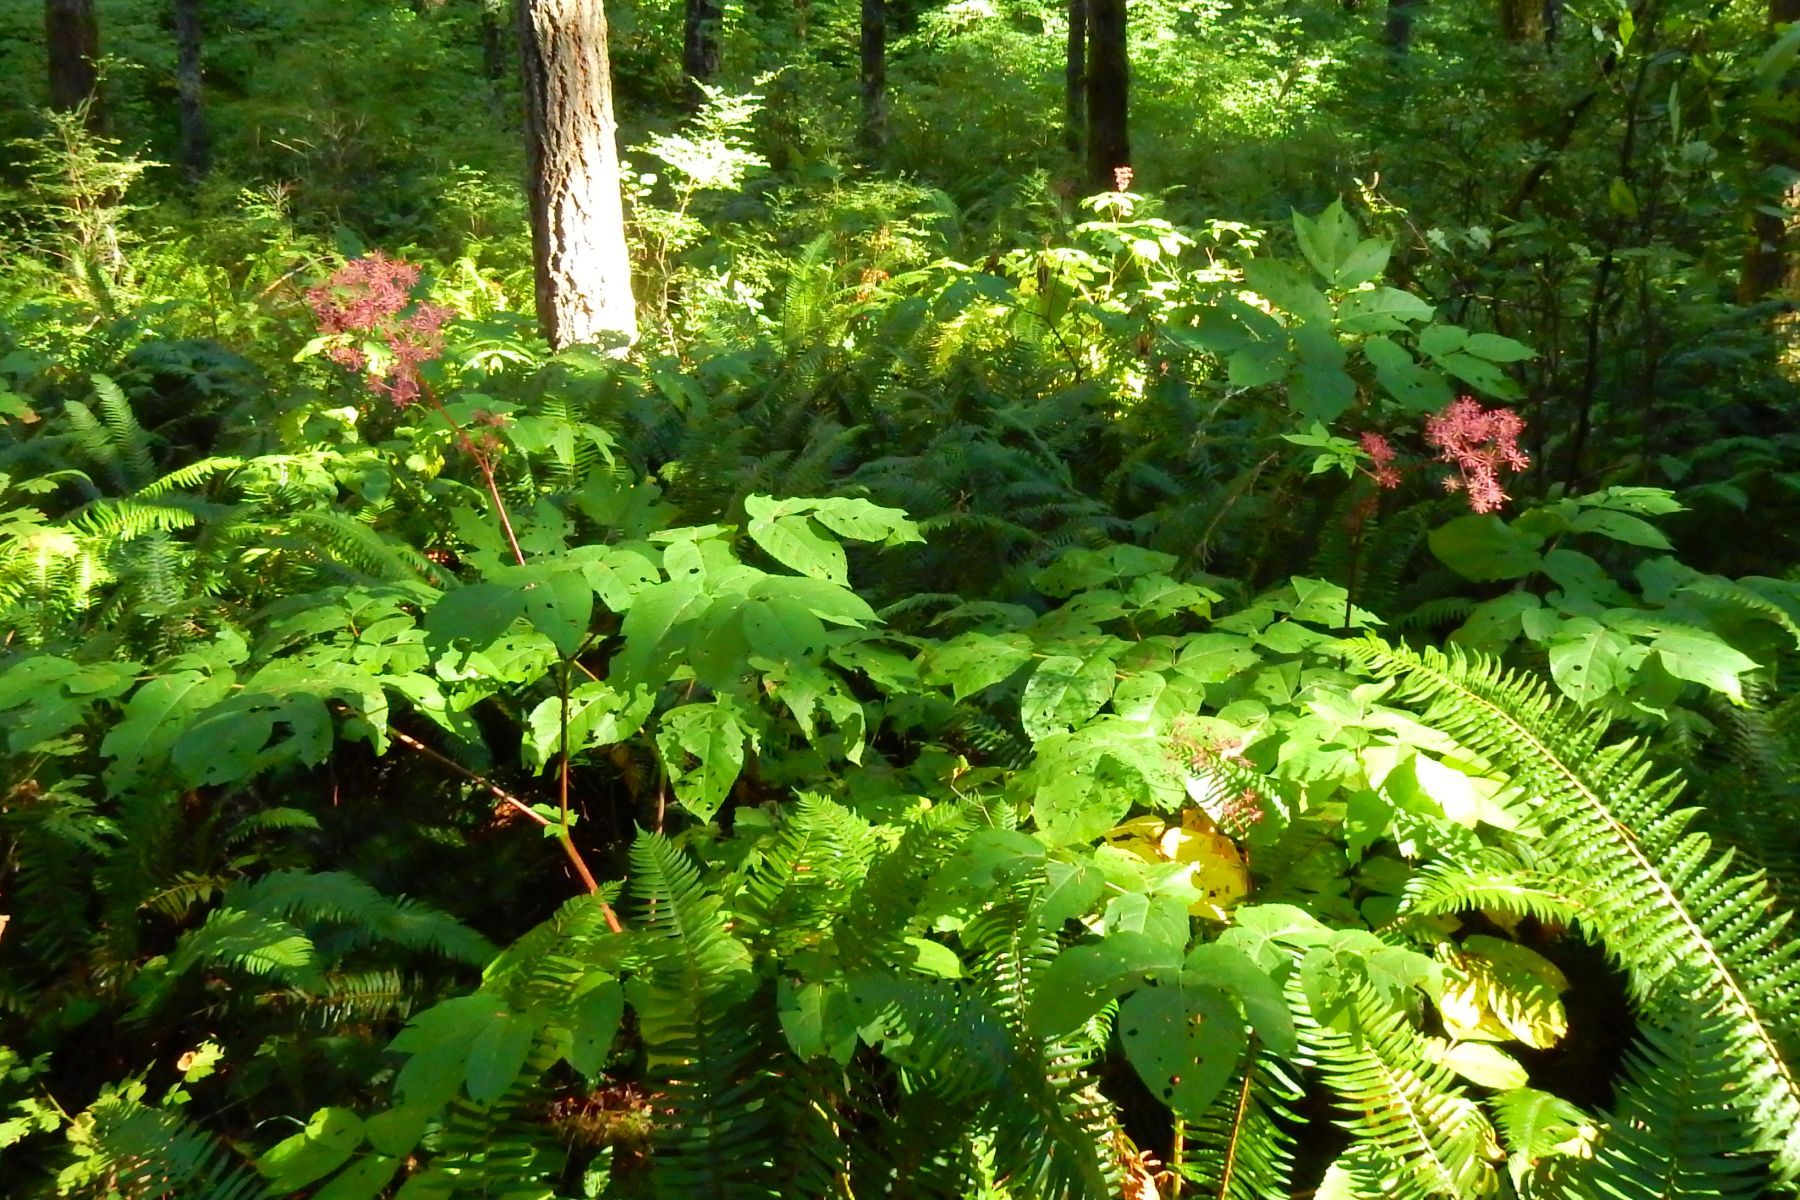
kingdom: Plantae
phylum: Tracheophyta
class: Magnoliopsida
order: Apiales
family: Araliaceae
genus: Aralia
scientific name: Aralia californica
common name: California-ginseng
